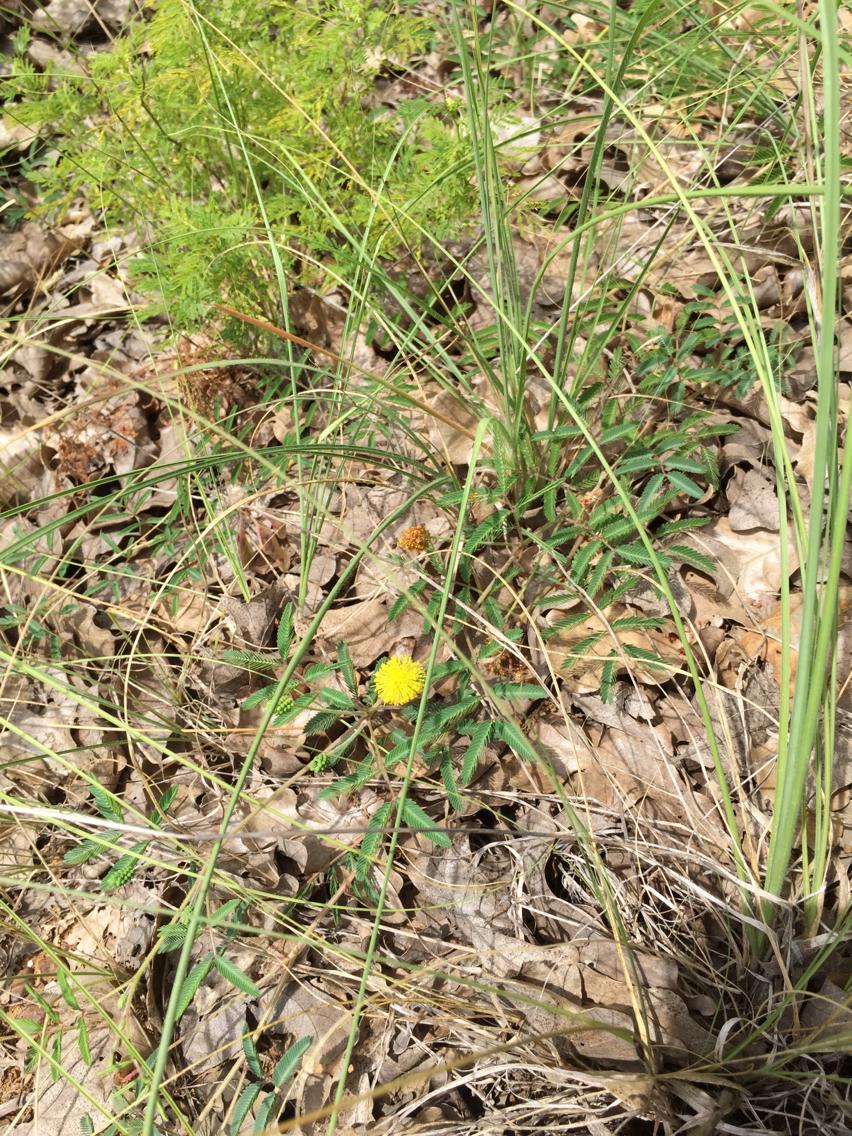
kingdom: Plantae
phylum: Tracheophyta
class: Magnoliopsida
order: Fabales
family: Fabaceae
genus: Neptunia
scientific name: Neptunia lutea
